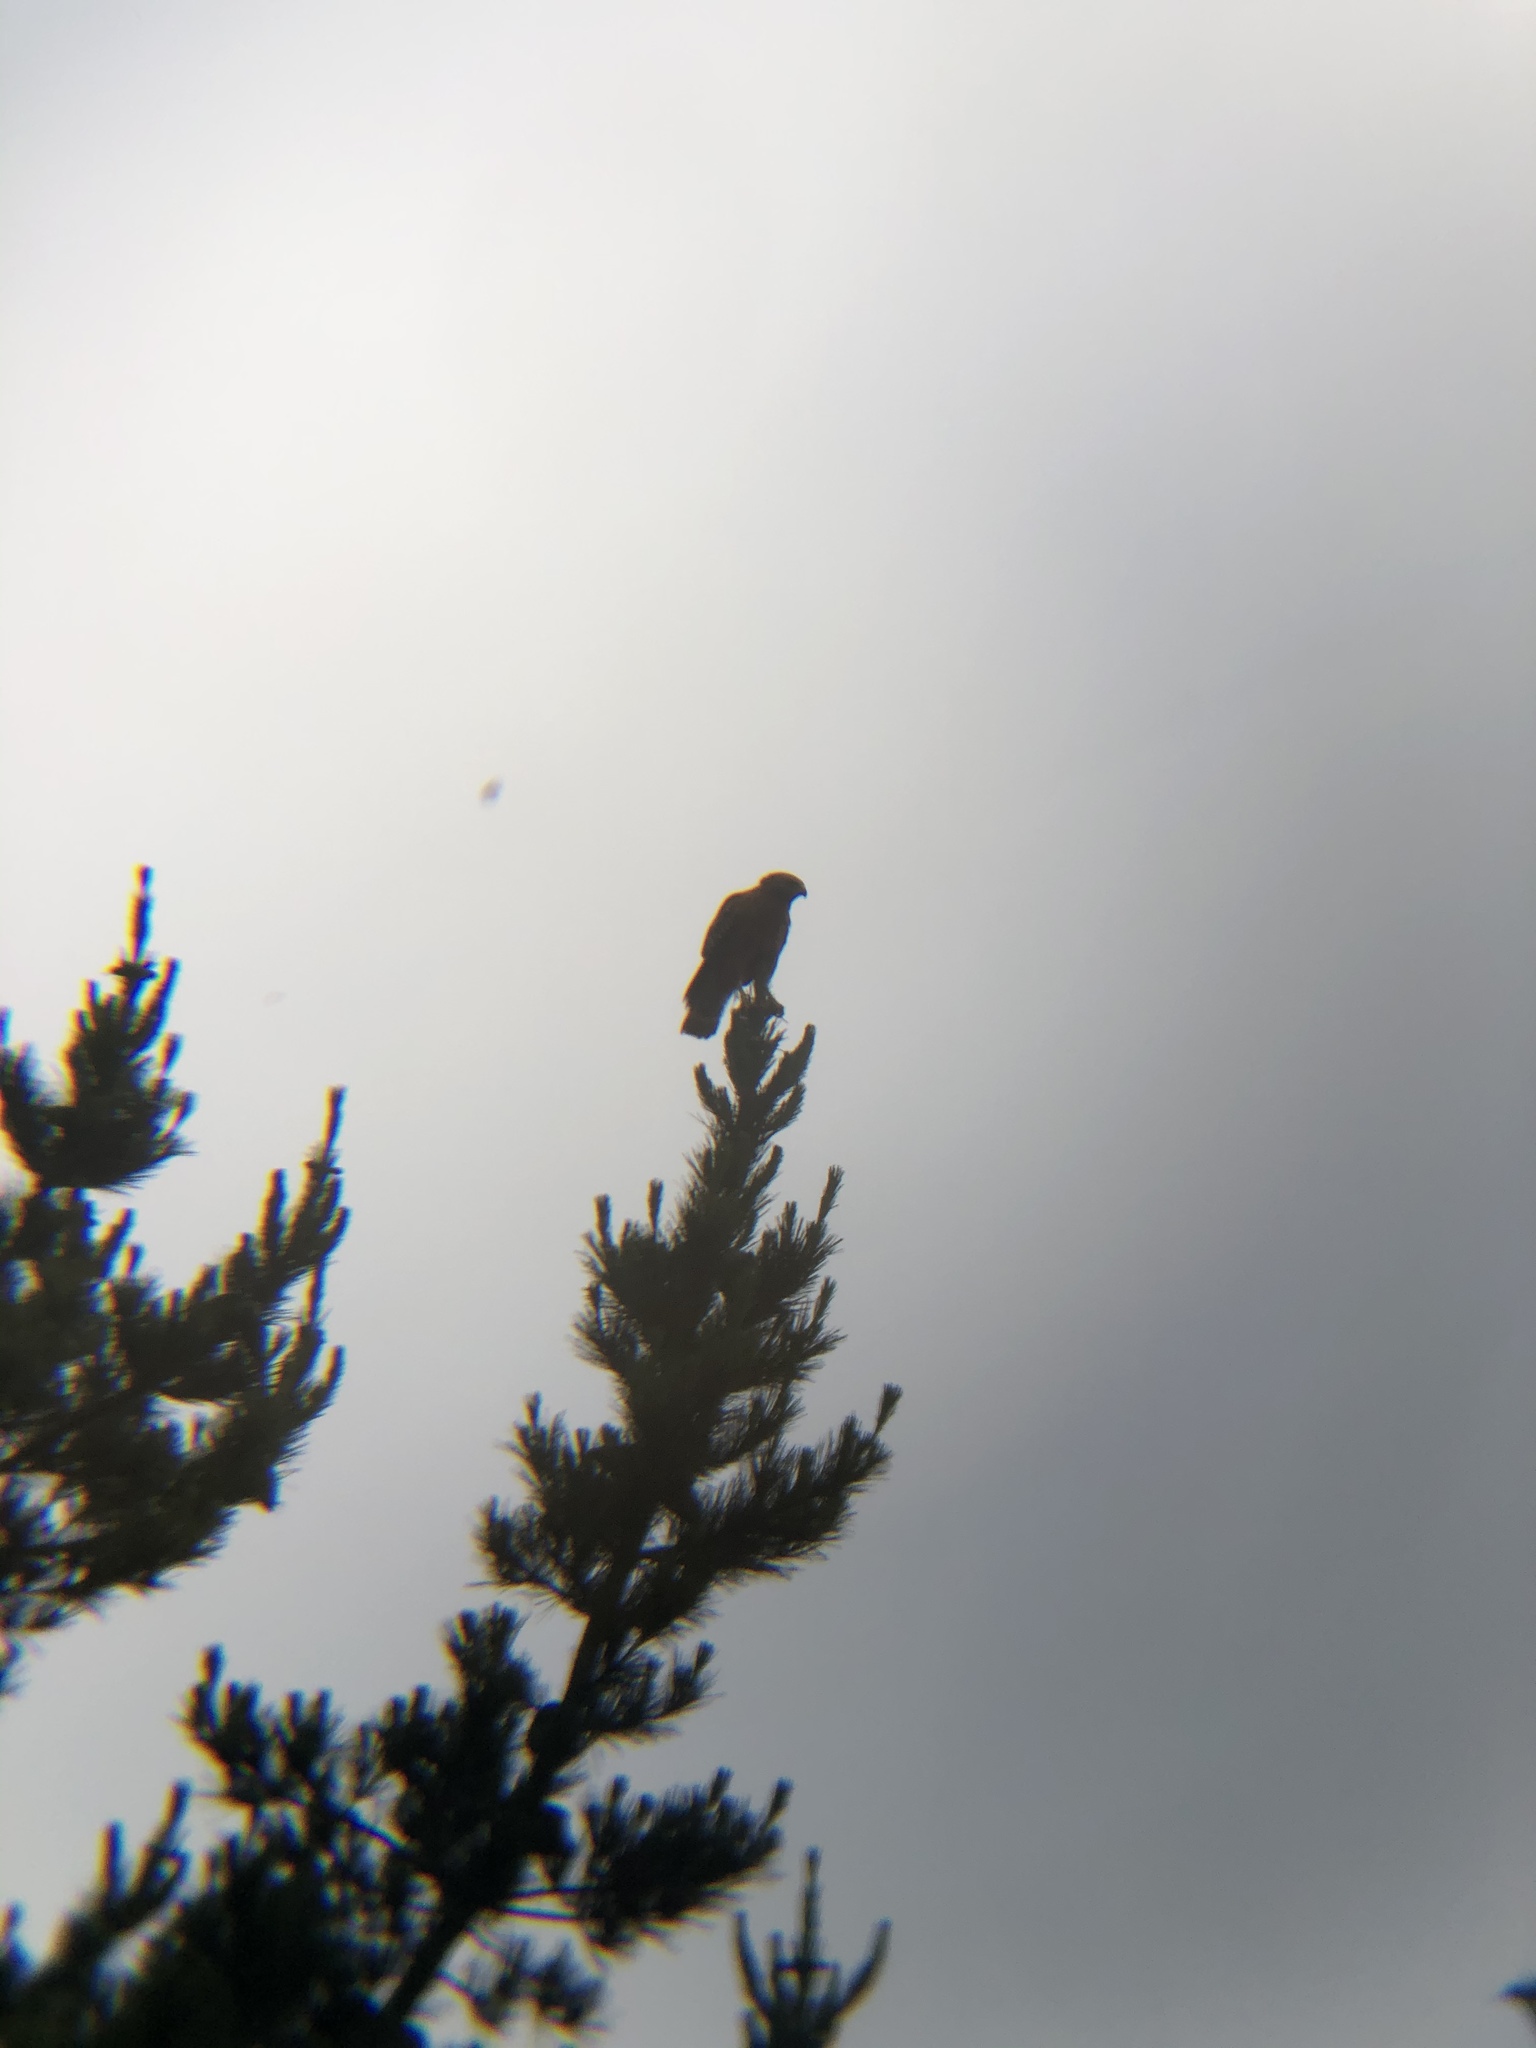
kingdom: Animalia
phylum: Chordata
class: Aves
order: Accipitriformes
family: Accipitridae
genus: Buteo
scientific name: Buteo lineatus
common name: Red-shouldered hawk
